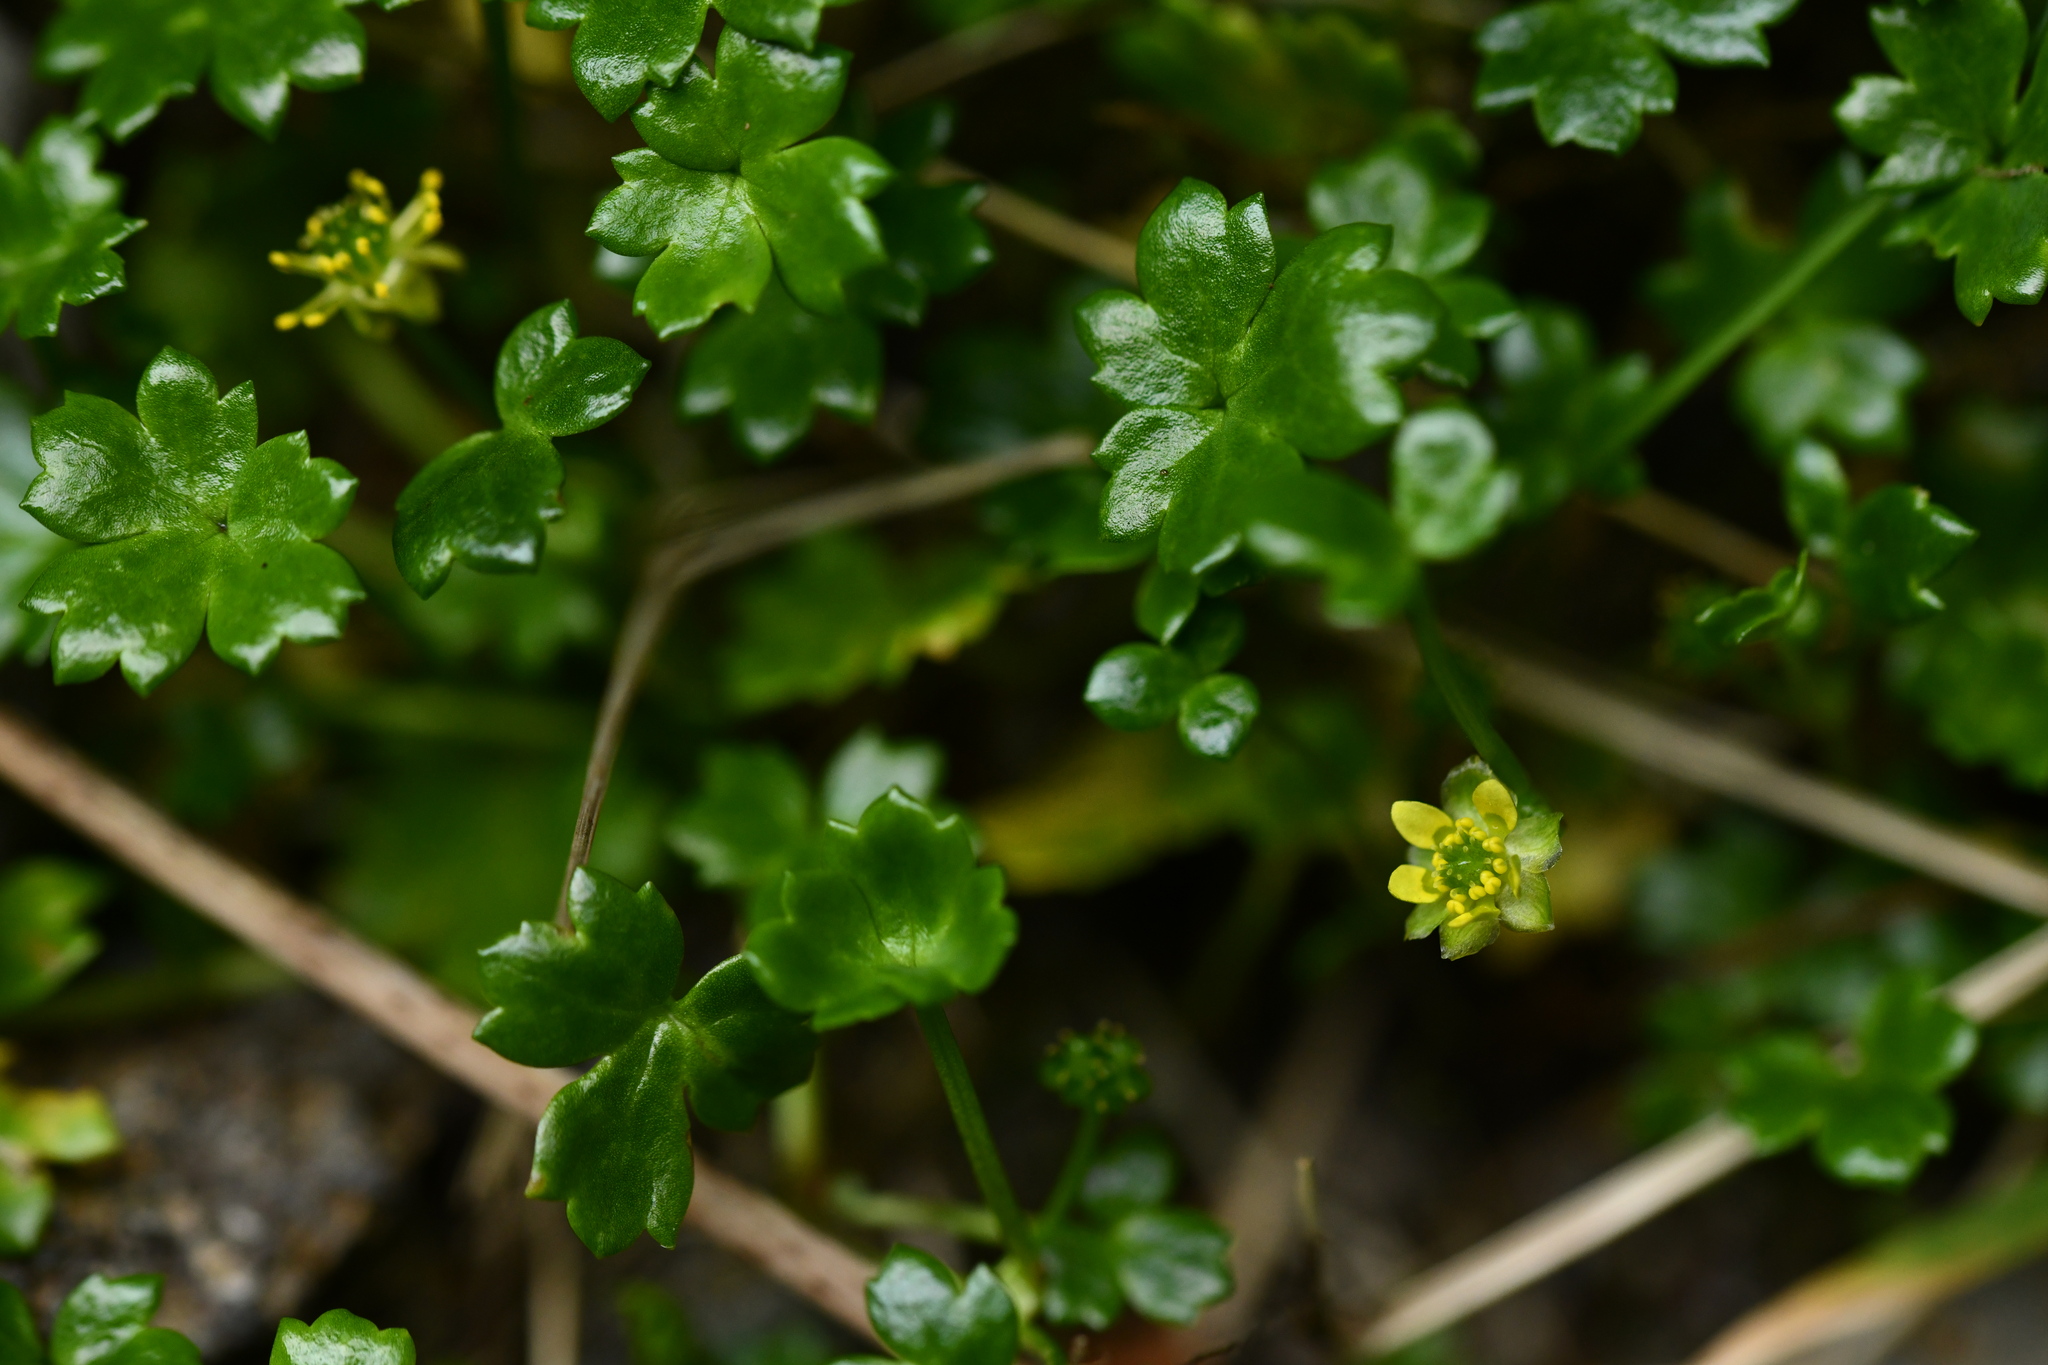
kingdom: Plantae
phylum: Tracheophyta
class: Magnoliopsida
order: Ranunculales
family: Ranunculaceae
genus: Ranunculus
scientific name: Ranunculus biternatus
